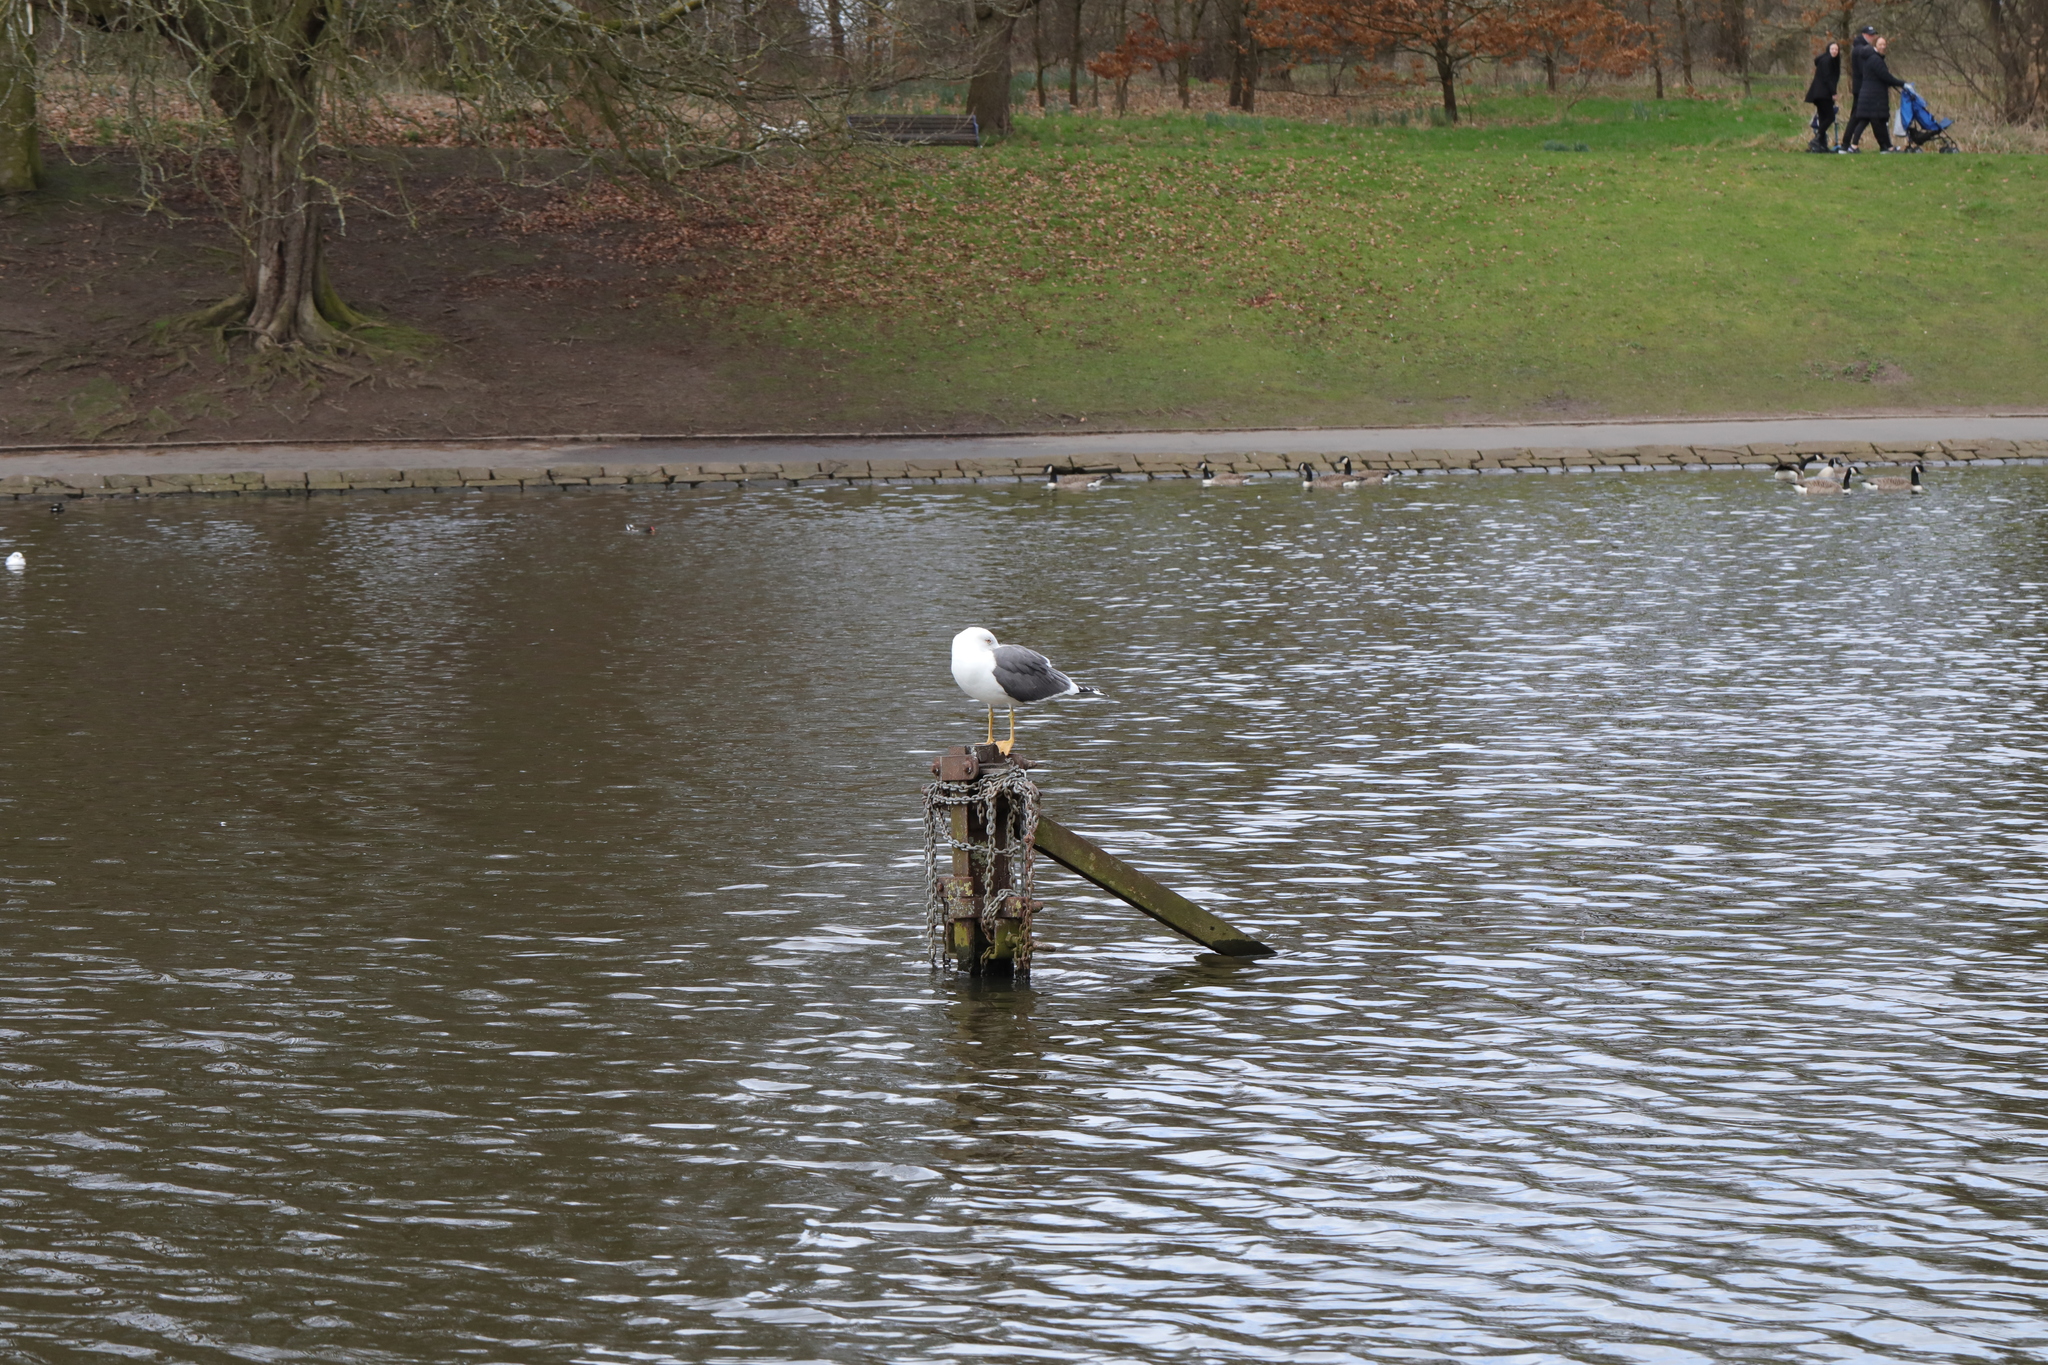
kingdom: Animalia
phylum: Chordata
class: Aves
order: Charadriiformes
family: Laridae
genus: Larus
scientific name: Larus fuscus
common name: Lesser black-backed gull
